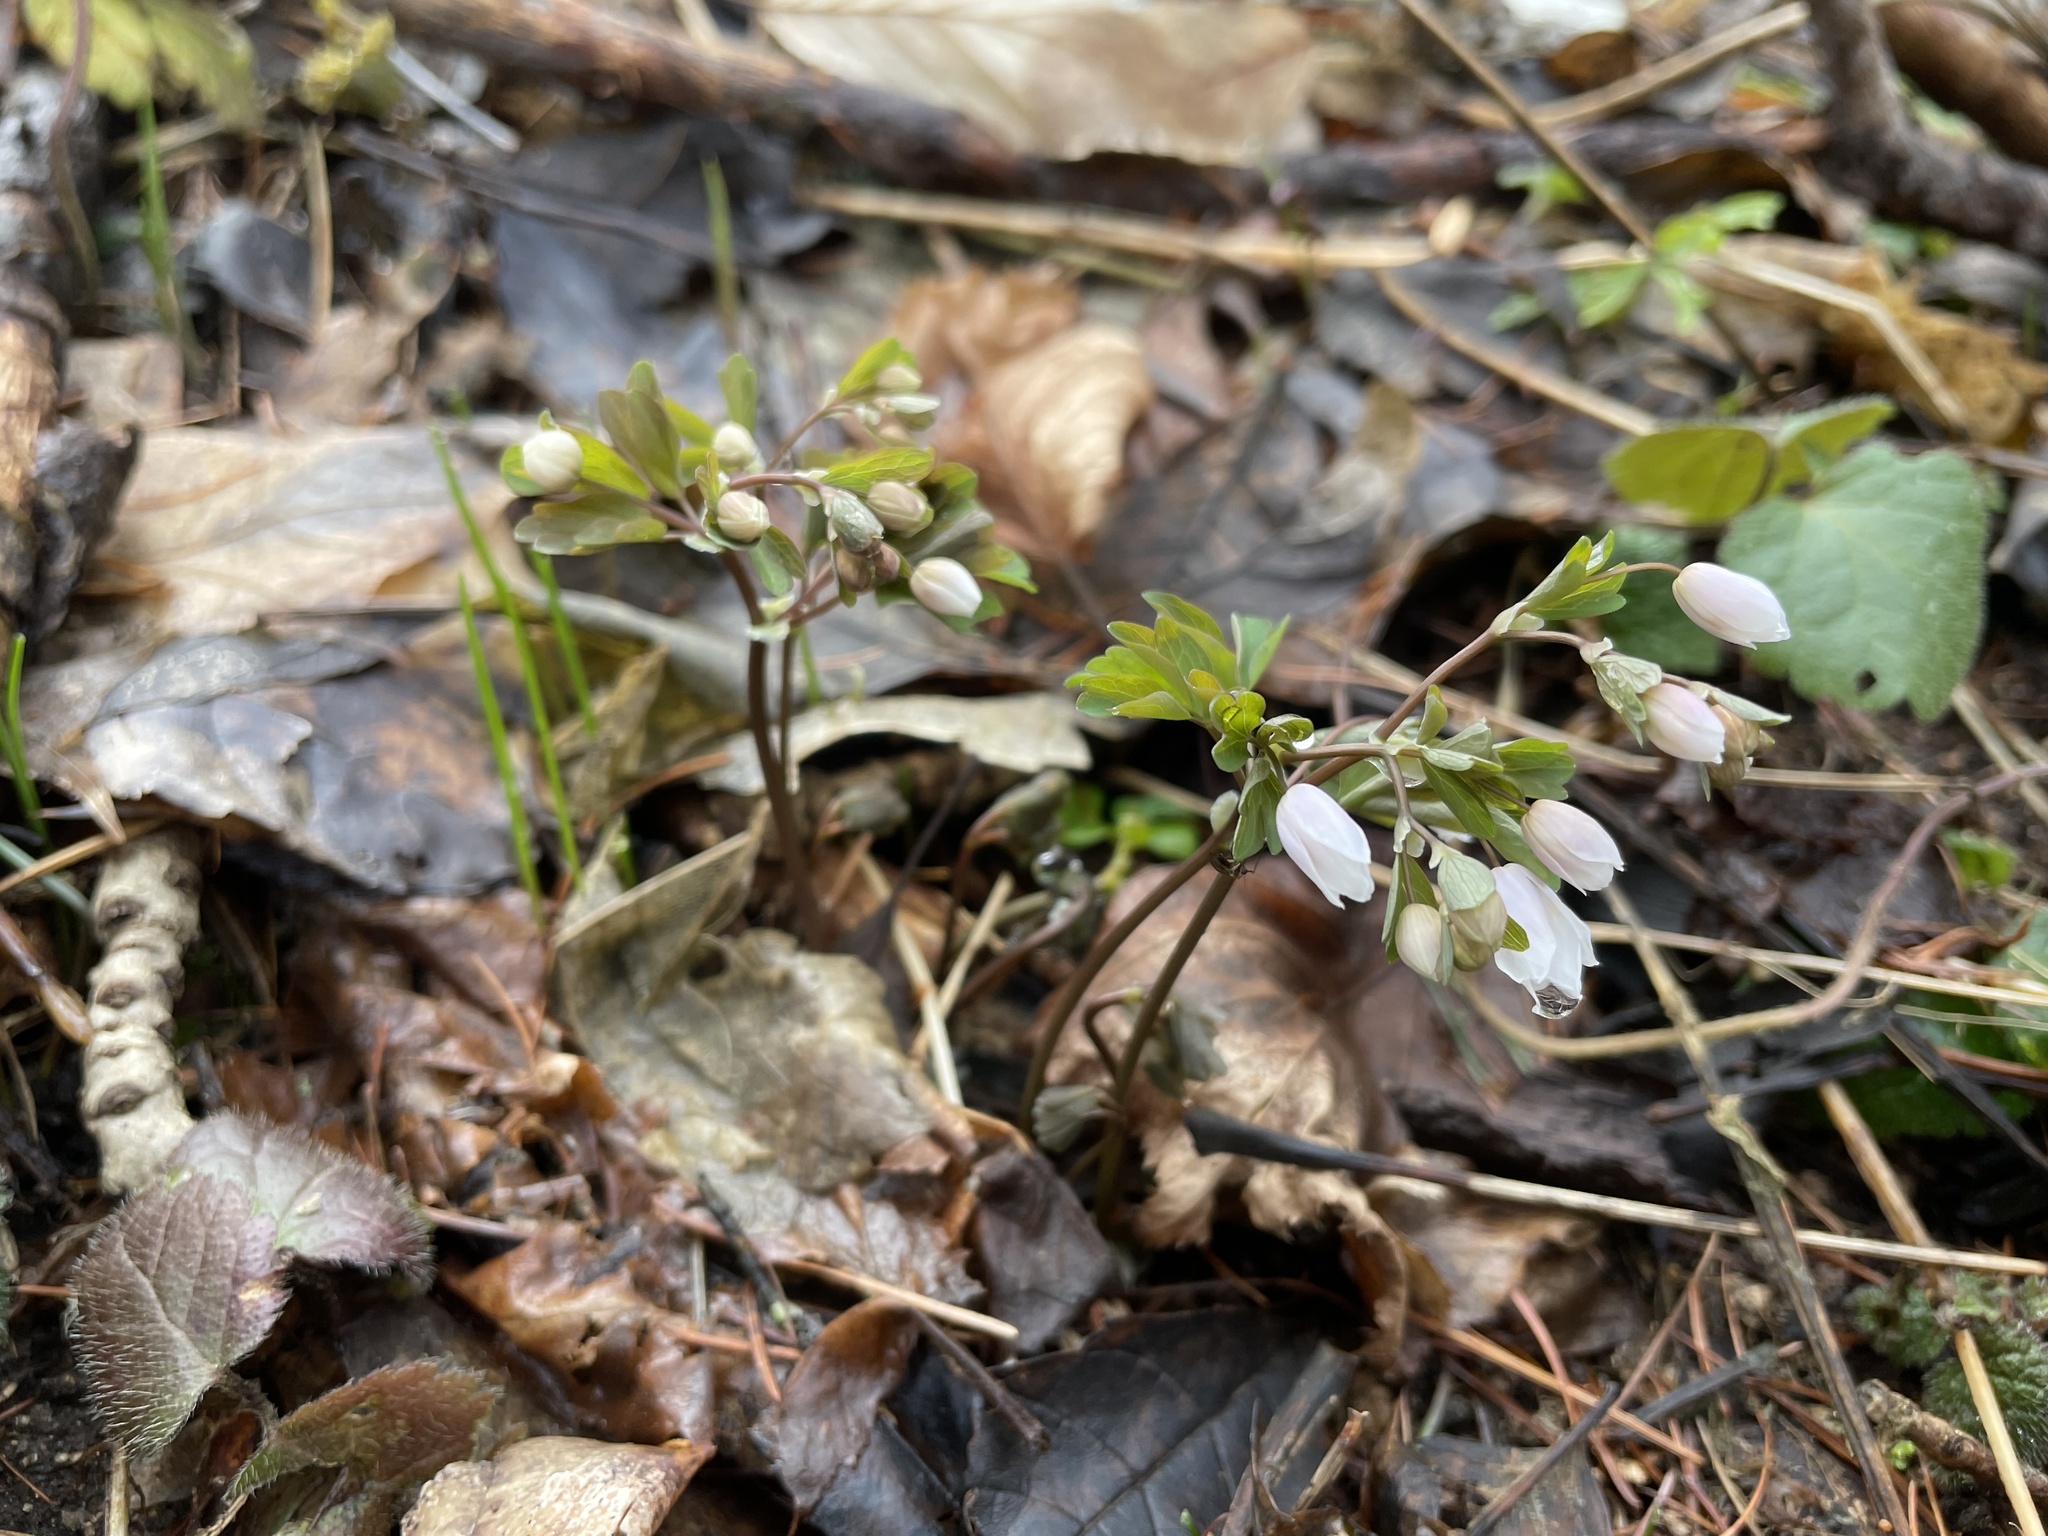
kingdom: Plantae
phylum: Tracheophyta
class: Magnoliopsida
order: Ranunculales
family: Ranunculaceae
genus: Isopyrum
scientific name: Isopyrum thalictroides
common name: Isopyrum
